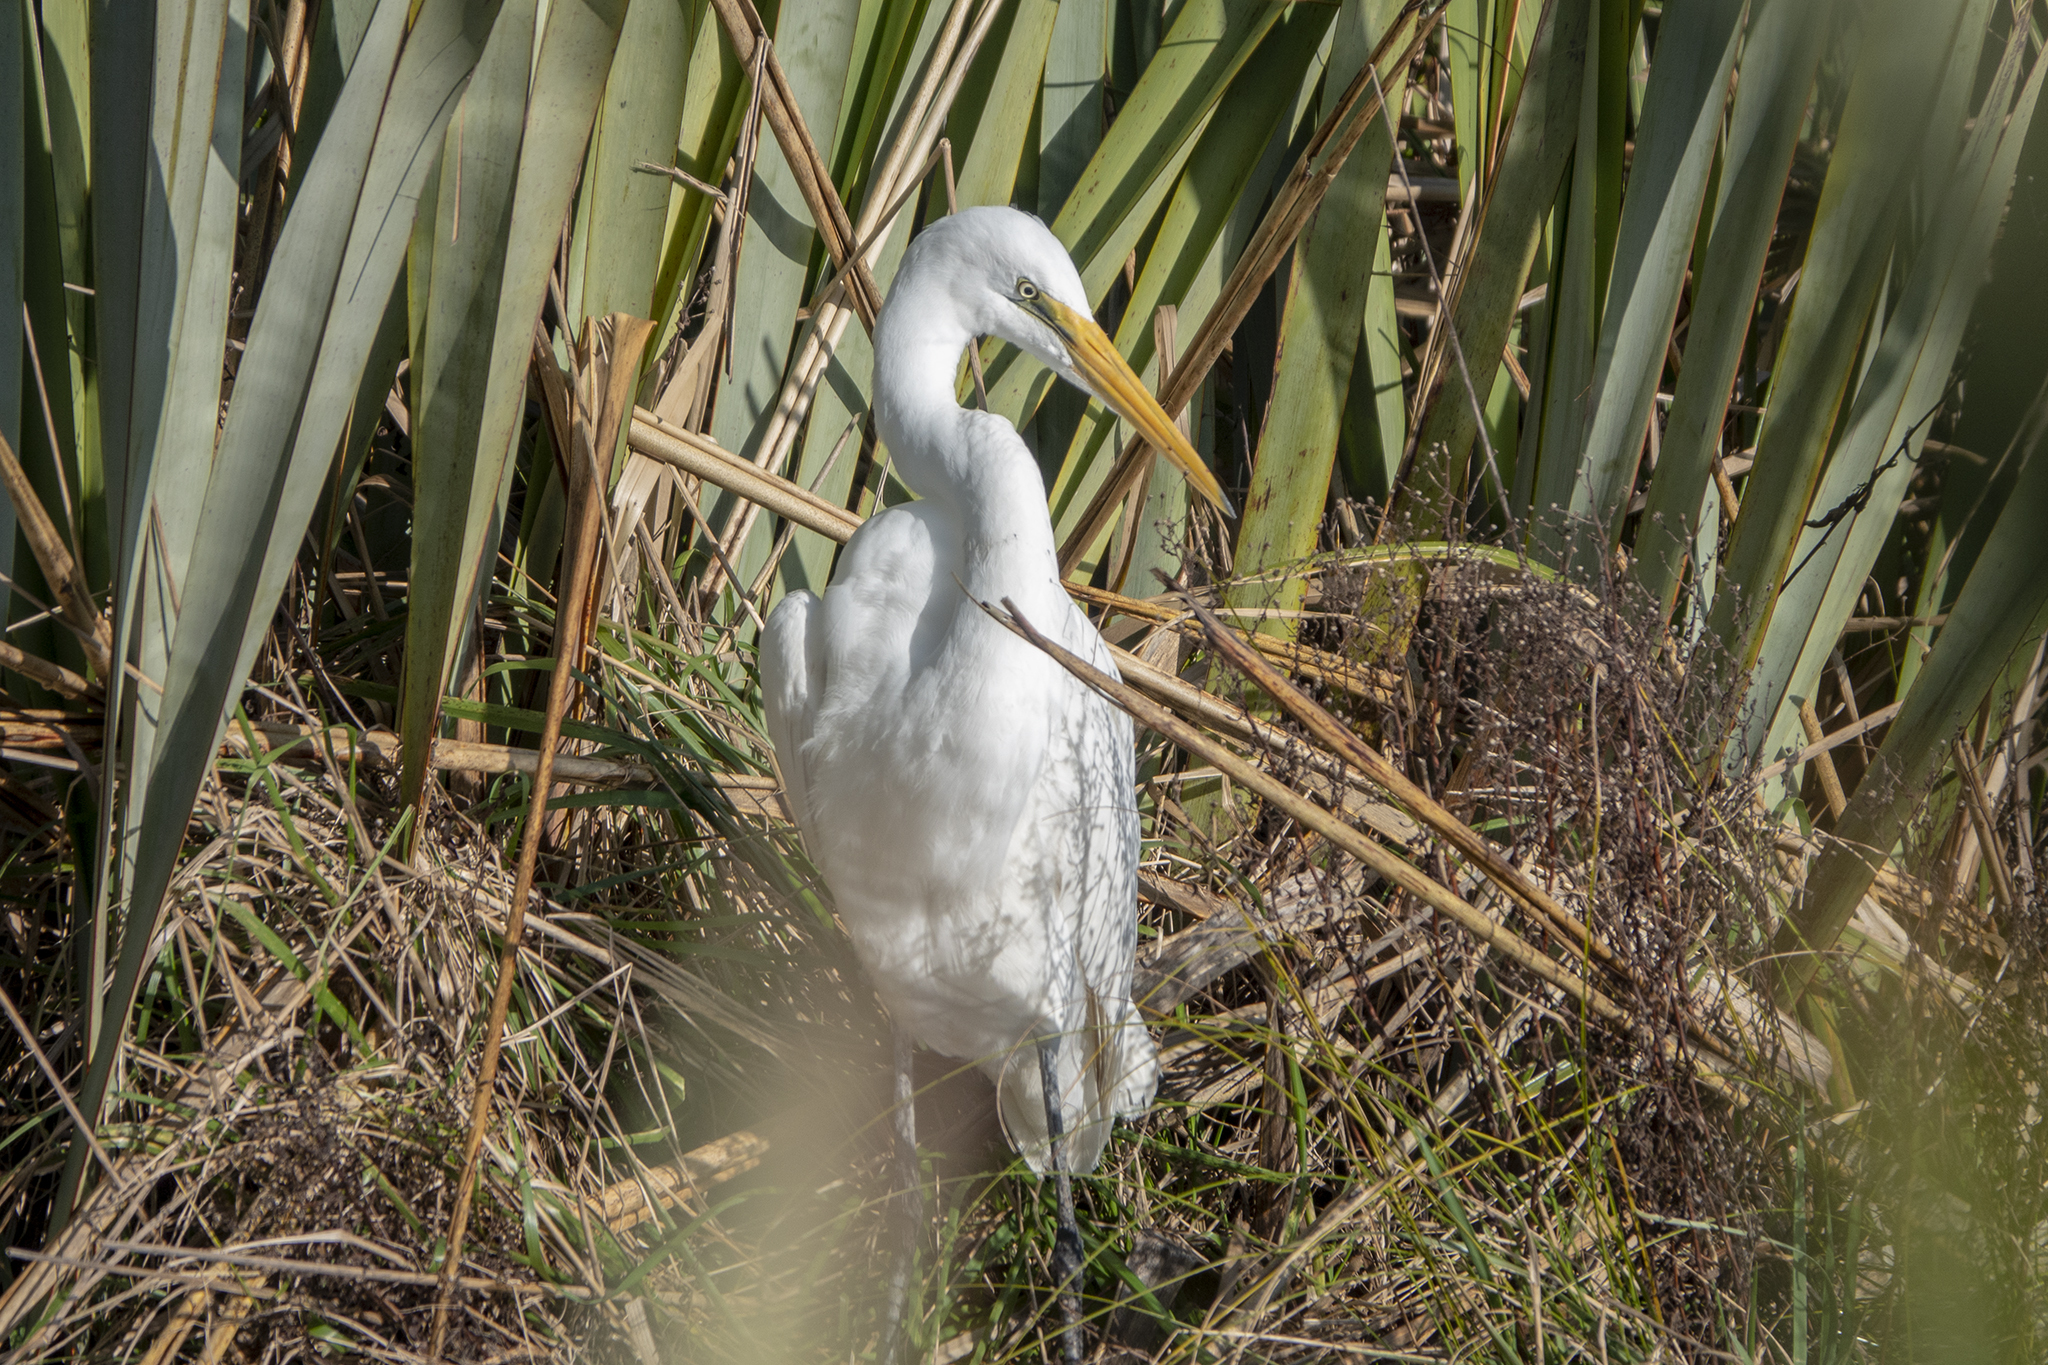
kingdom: Animalia
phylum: Chordata
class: Aves
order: Pelecaniformes
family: Ardeidae
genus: Ardea
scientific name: Ardea modesta
